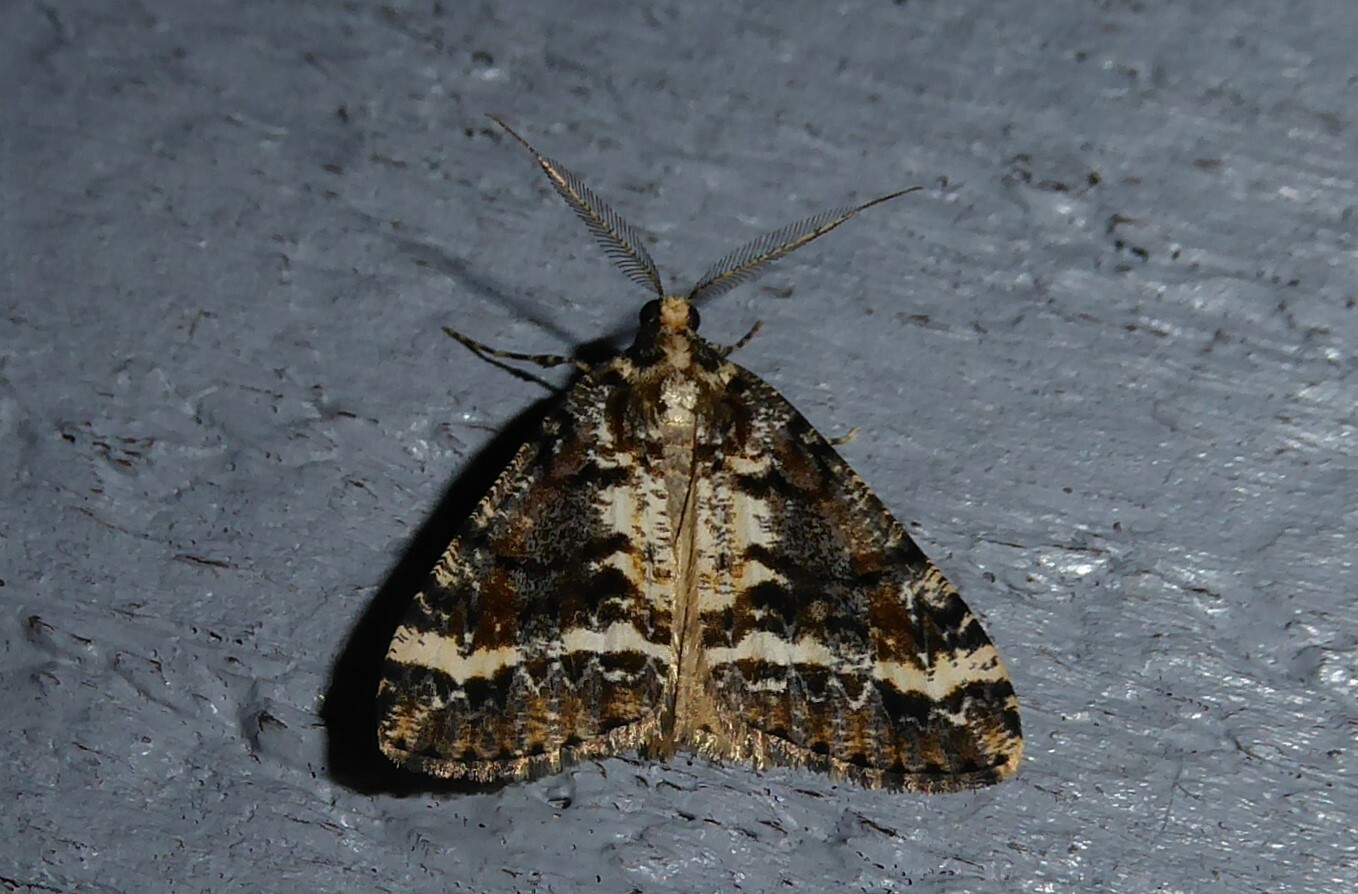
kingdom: Animalia
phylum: Arthropoda
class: Insecta
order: Lepidoptera
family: Geometridae
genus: Pseudocoremia
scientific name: Pseudocoremia leucelaea
